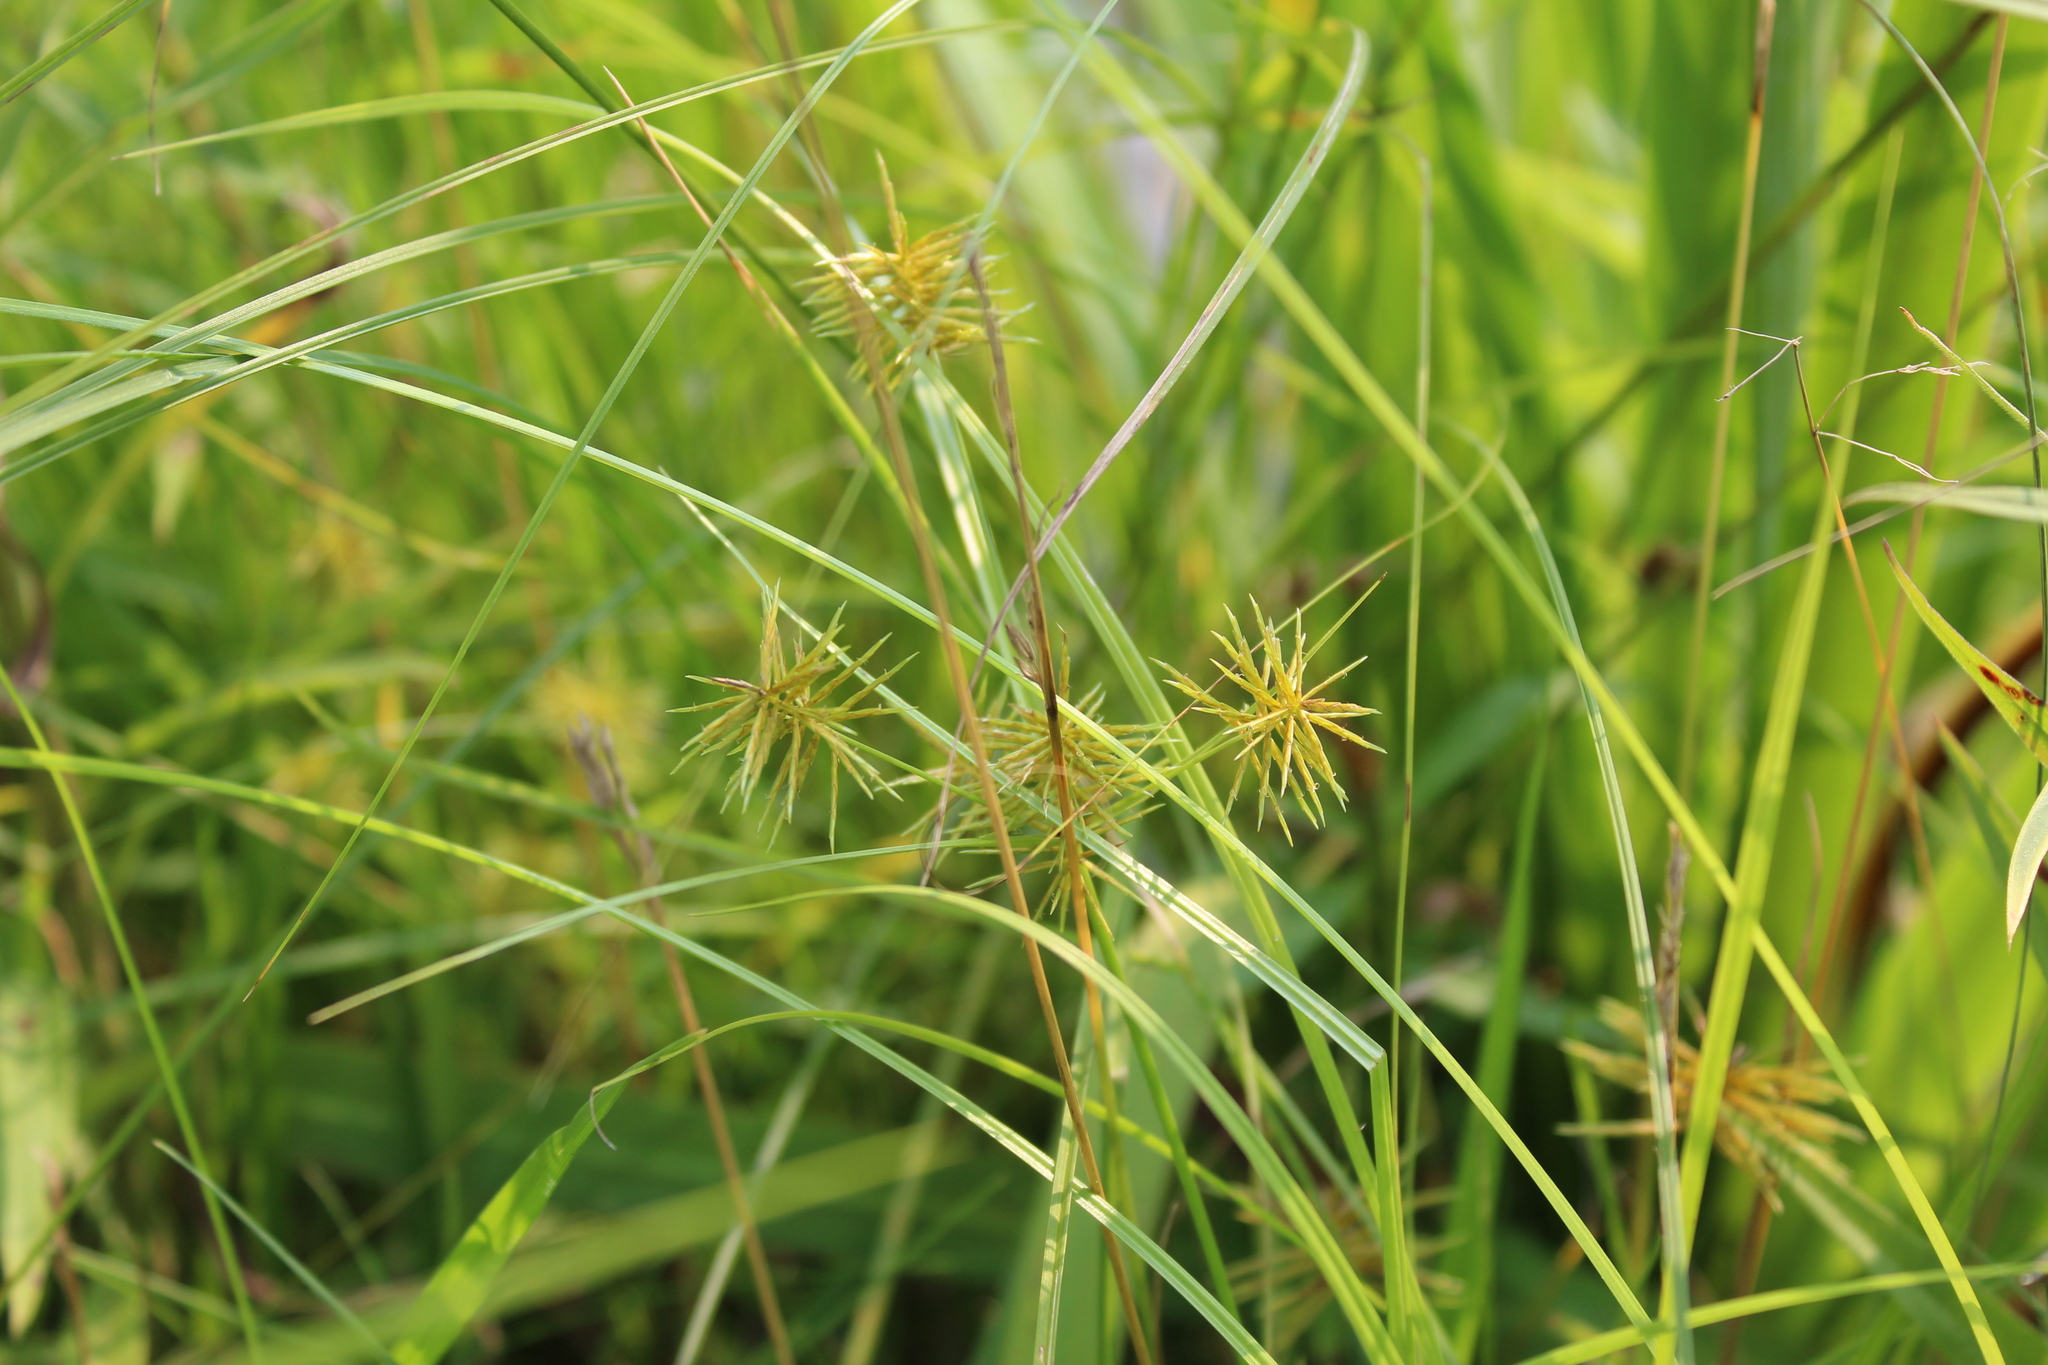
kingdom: Plantae
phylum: Tracheophyta
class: Liliopsida
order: Poales
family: Cyperaceae
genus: Cyperus
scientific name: Cyperus strigosus
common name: False nutsedge
